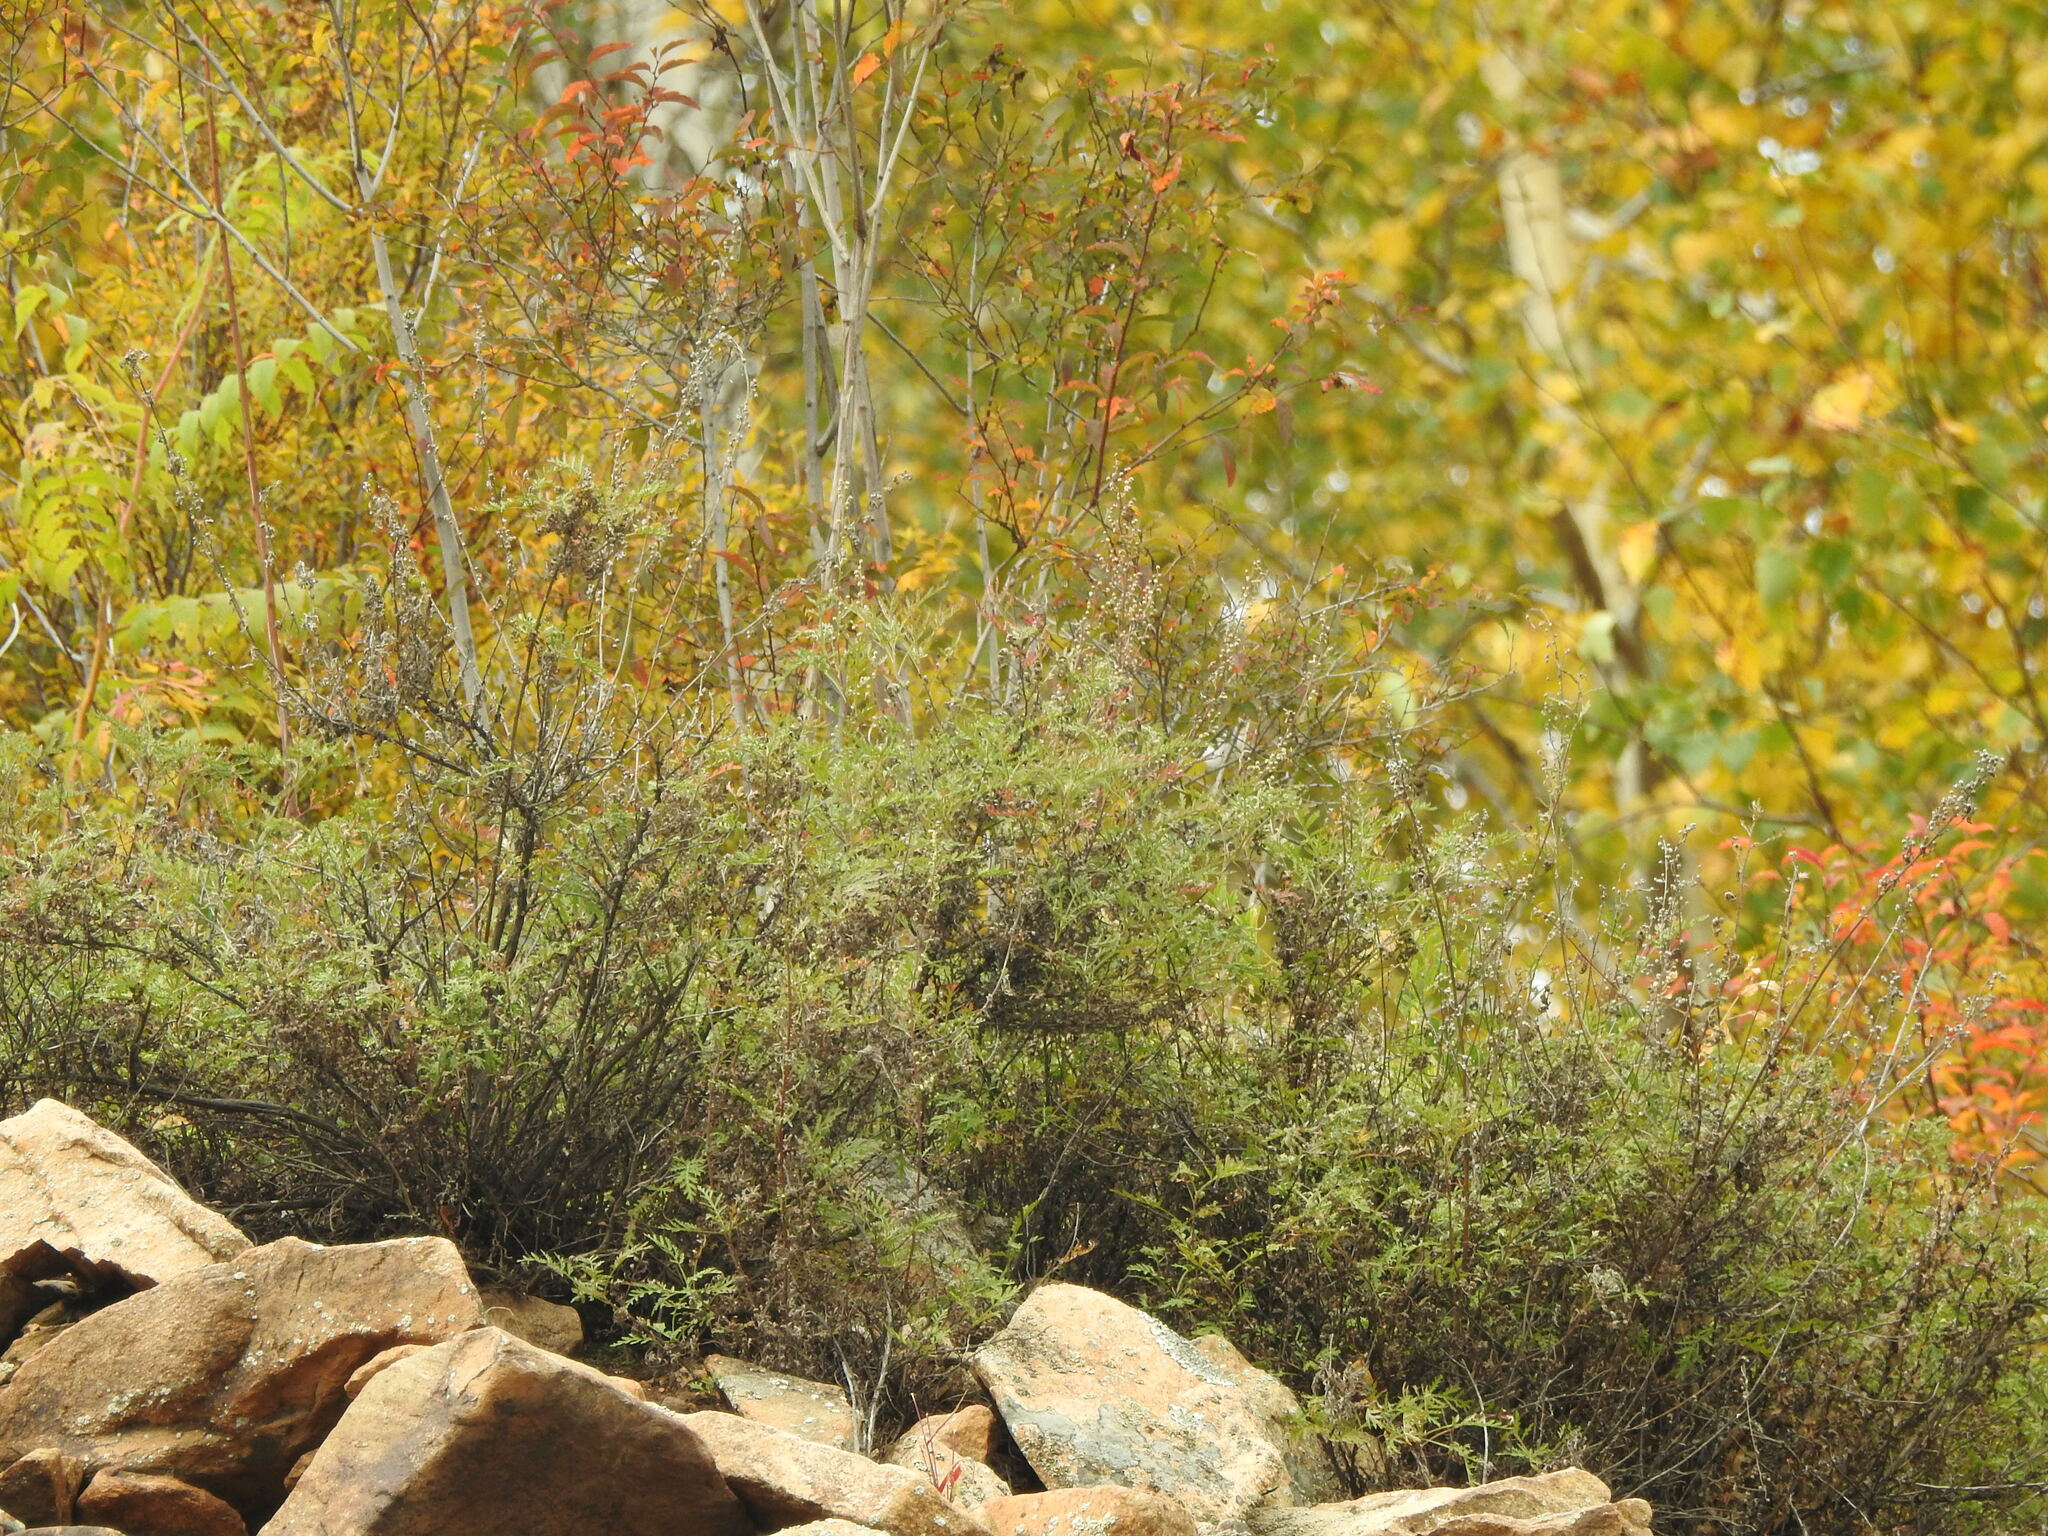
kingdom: Plantae
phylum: Tracheophyta
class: Magnoliopsida
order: Asterales
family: Asteraceae
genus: Artemisia
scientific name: Artemisia gmelinii
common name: Gmelin's wormwood
